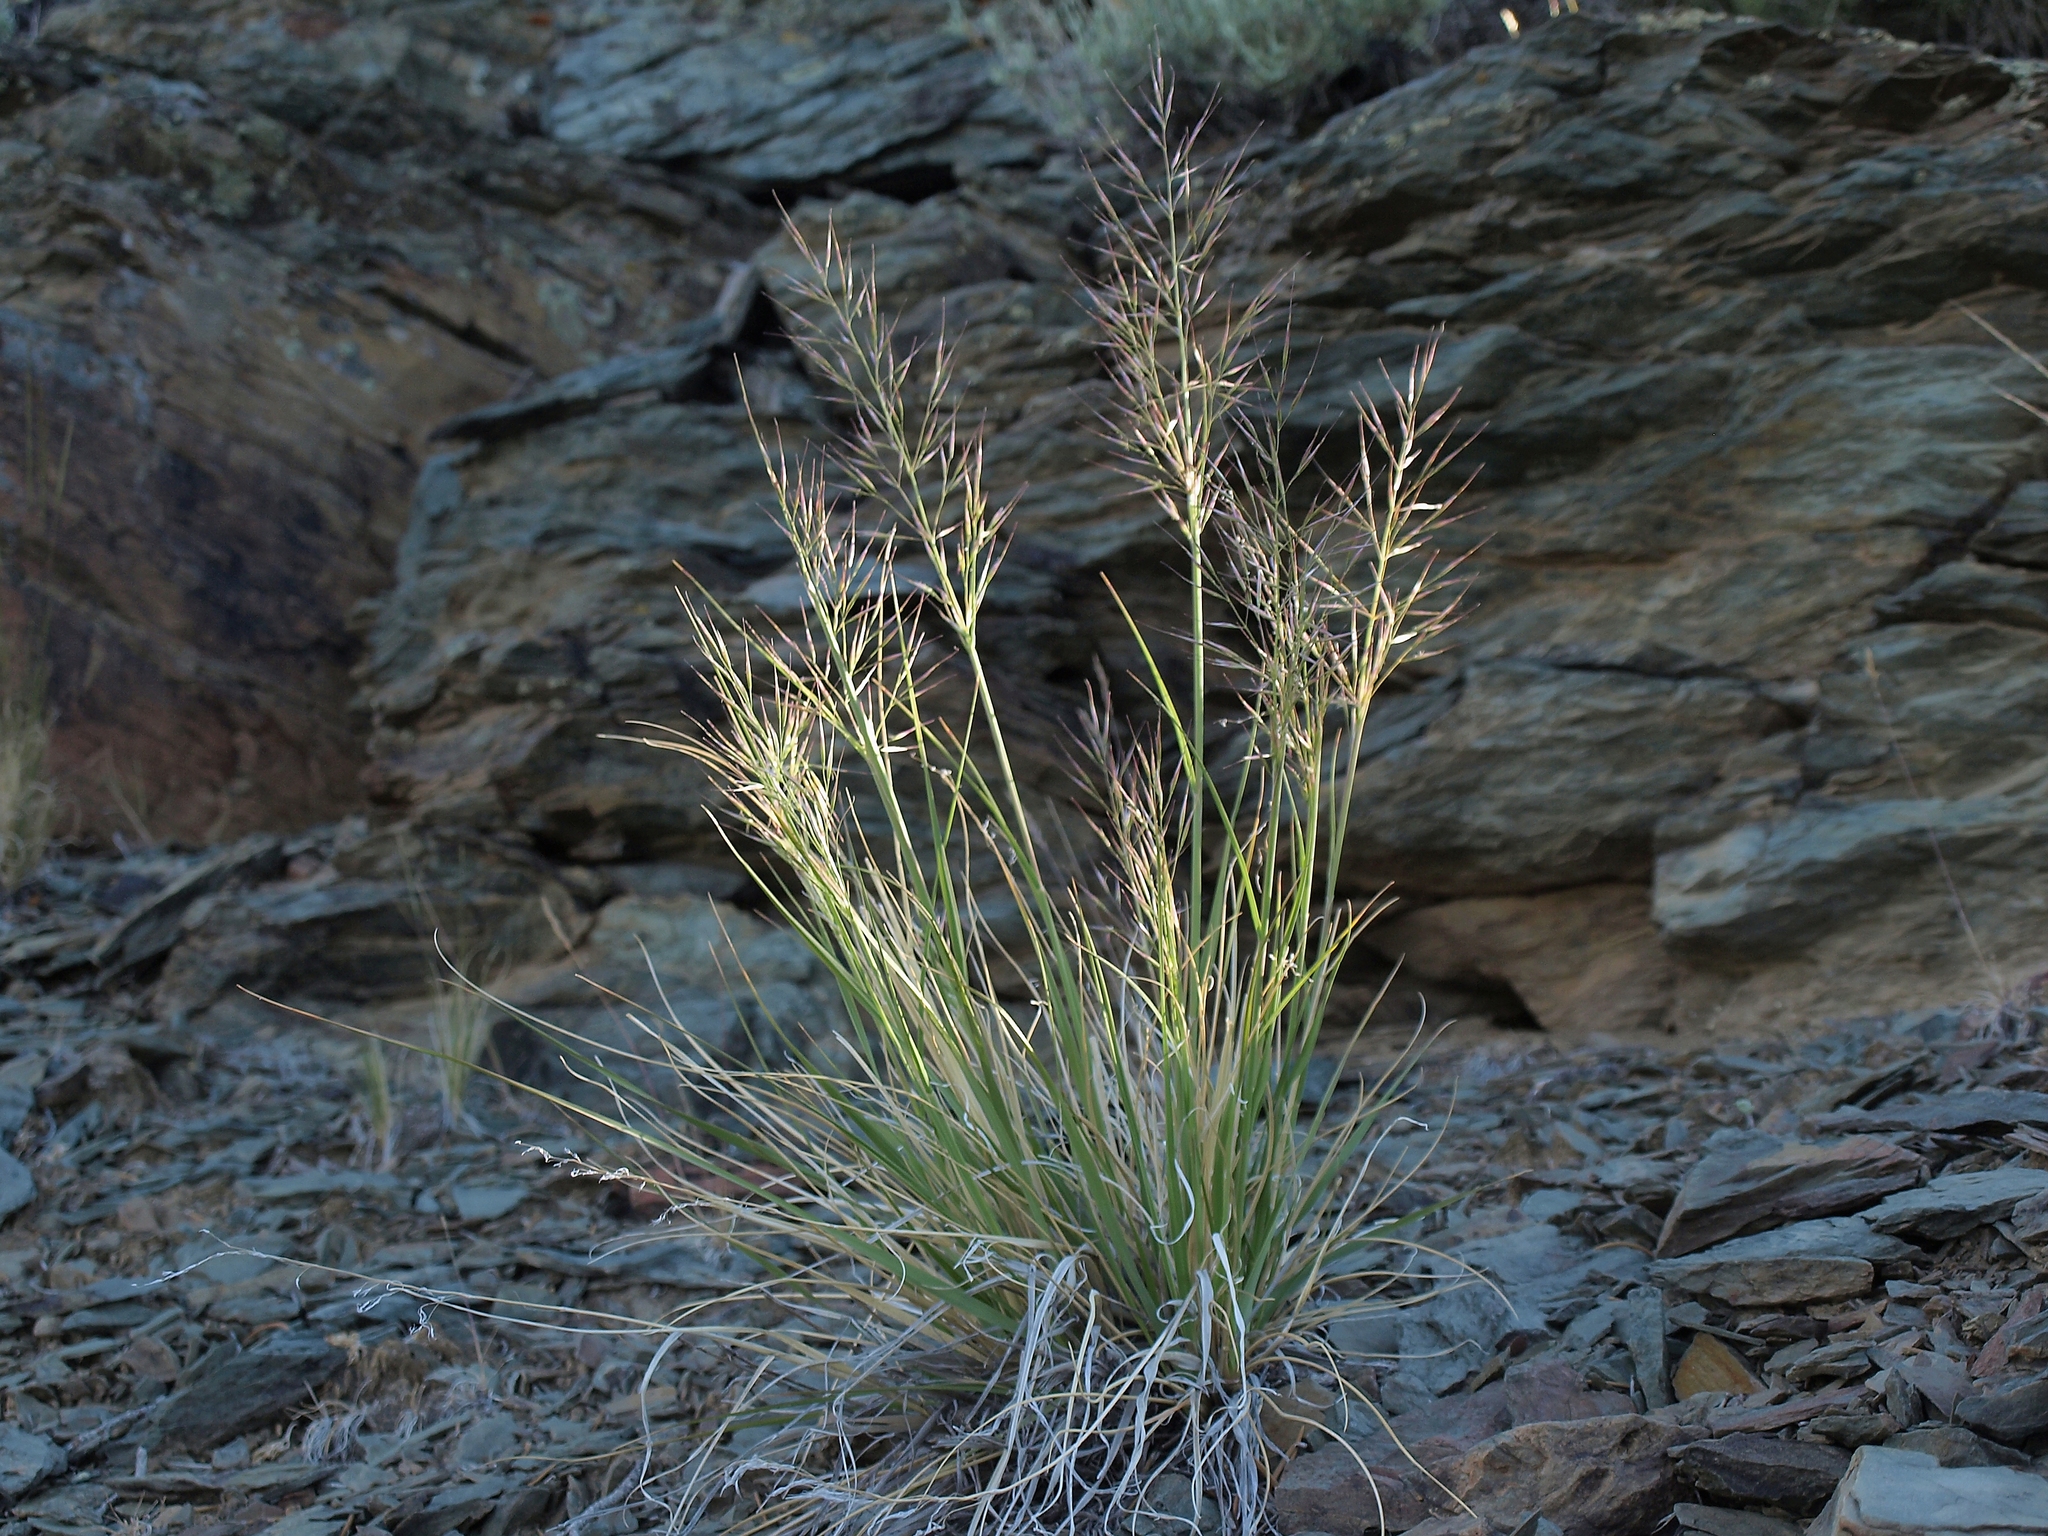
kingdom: Plantae
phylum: Tracheophyta
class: Liliopsida
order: Poales
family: Poaceae
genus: Eriocoma
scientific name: Eriocoma parishii
